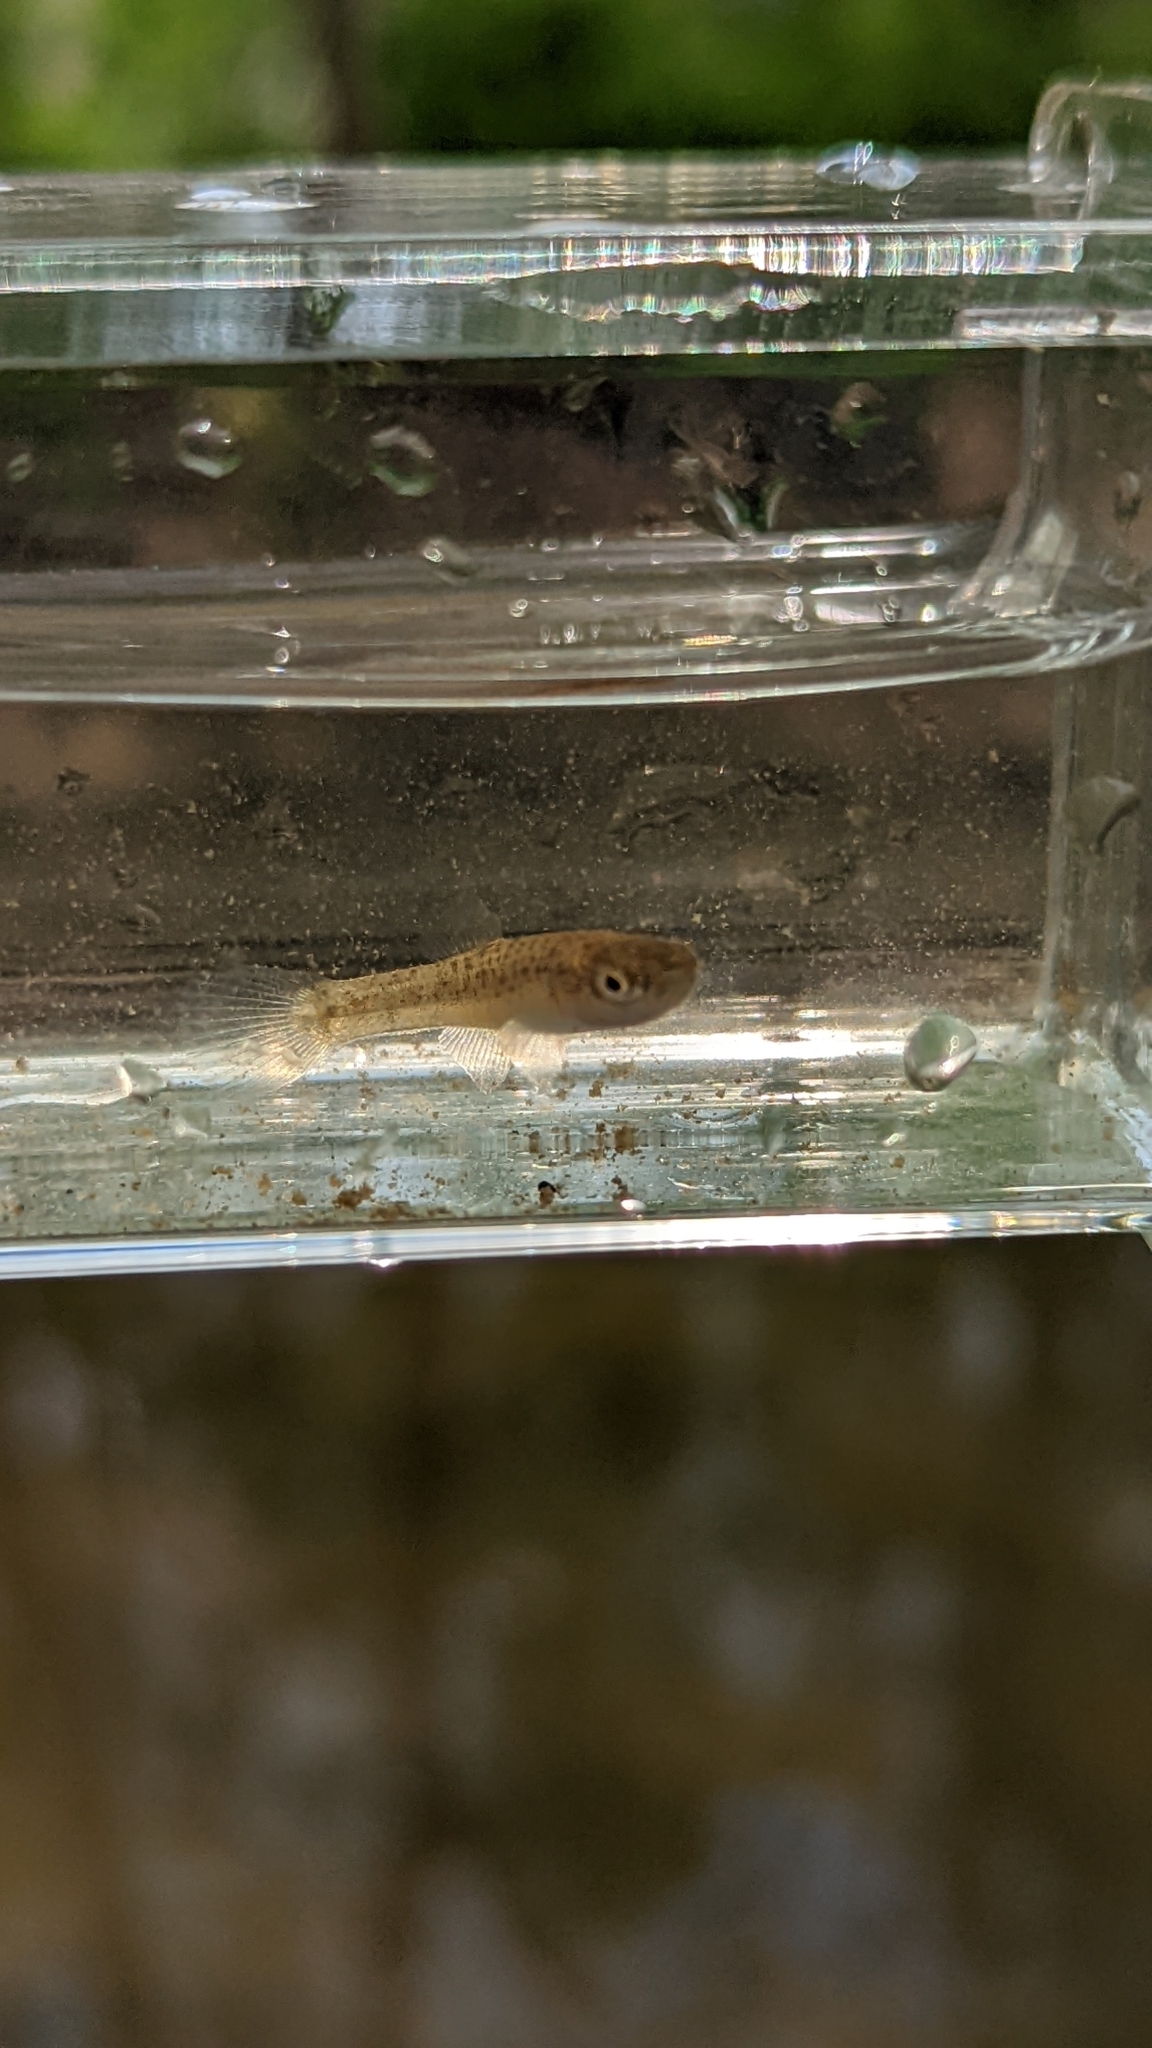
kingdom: Animalia
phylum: Chordata
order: Cyprinodontiformes
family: Fundulidae
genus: Fundulus
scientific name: Fundulus catenatus
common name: Northern studfish
